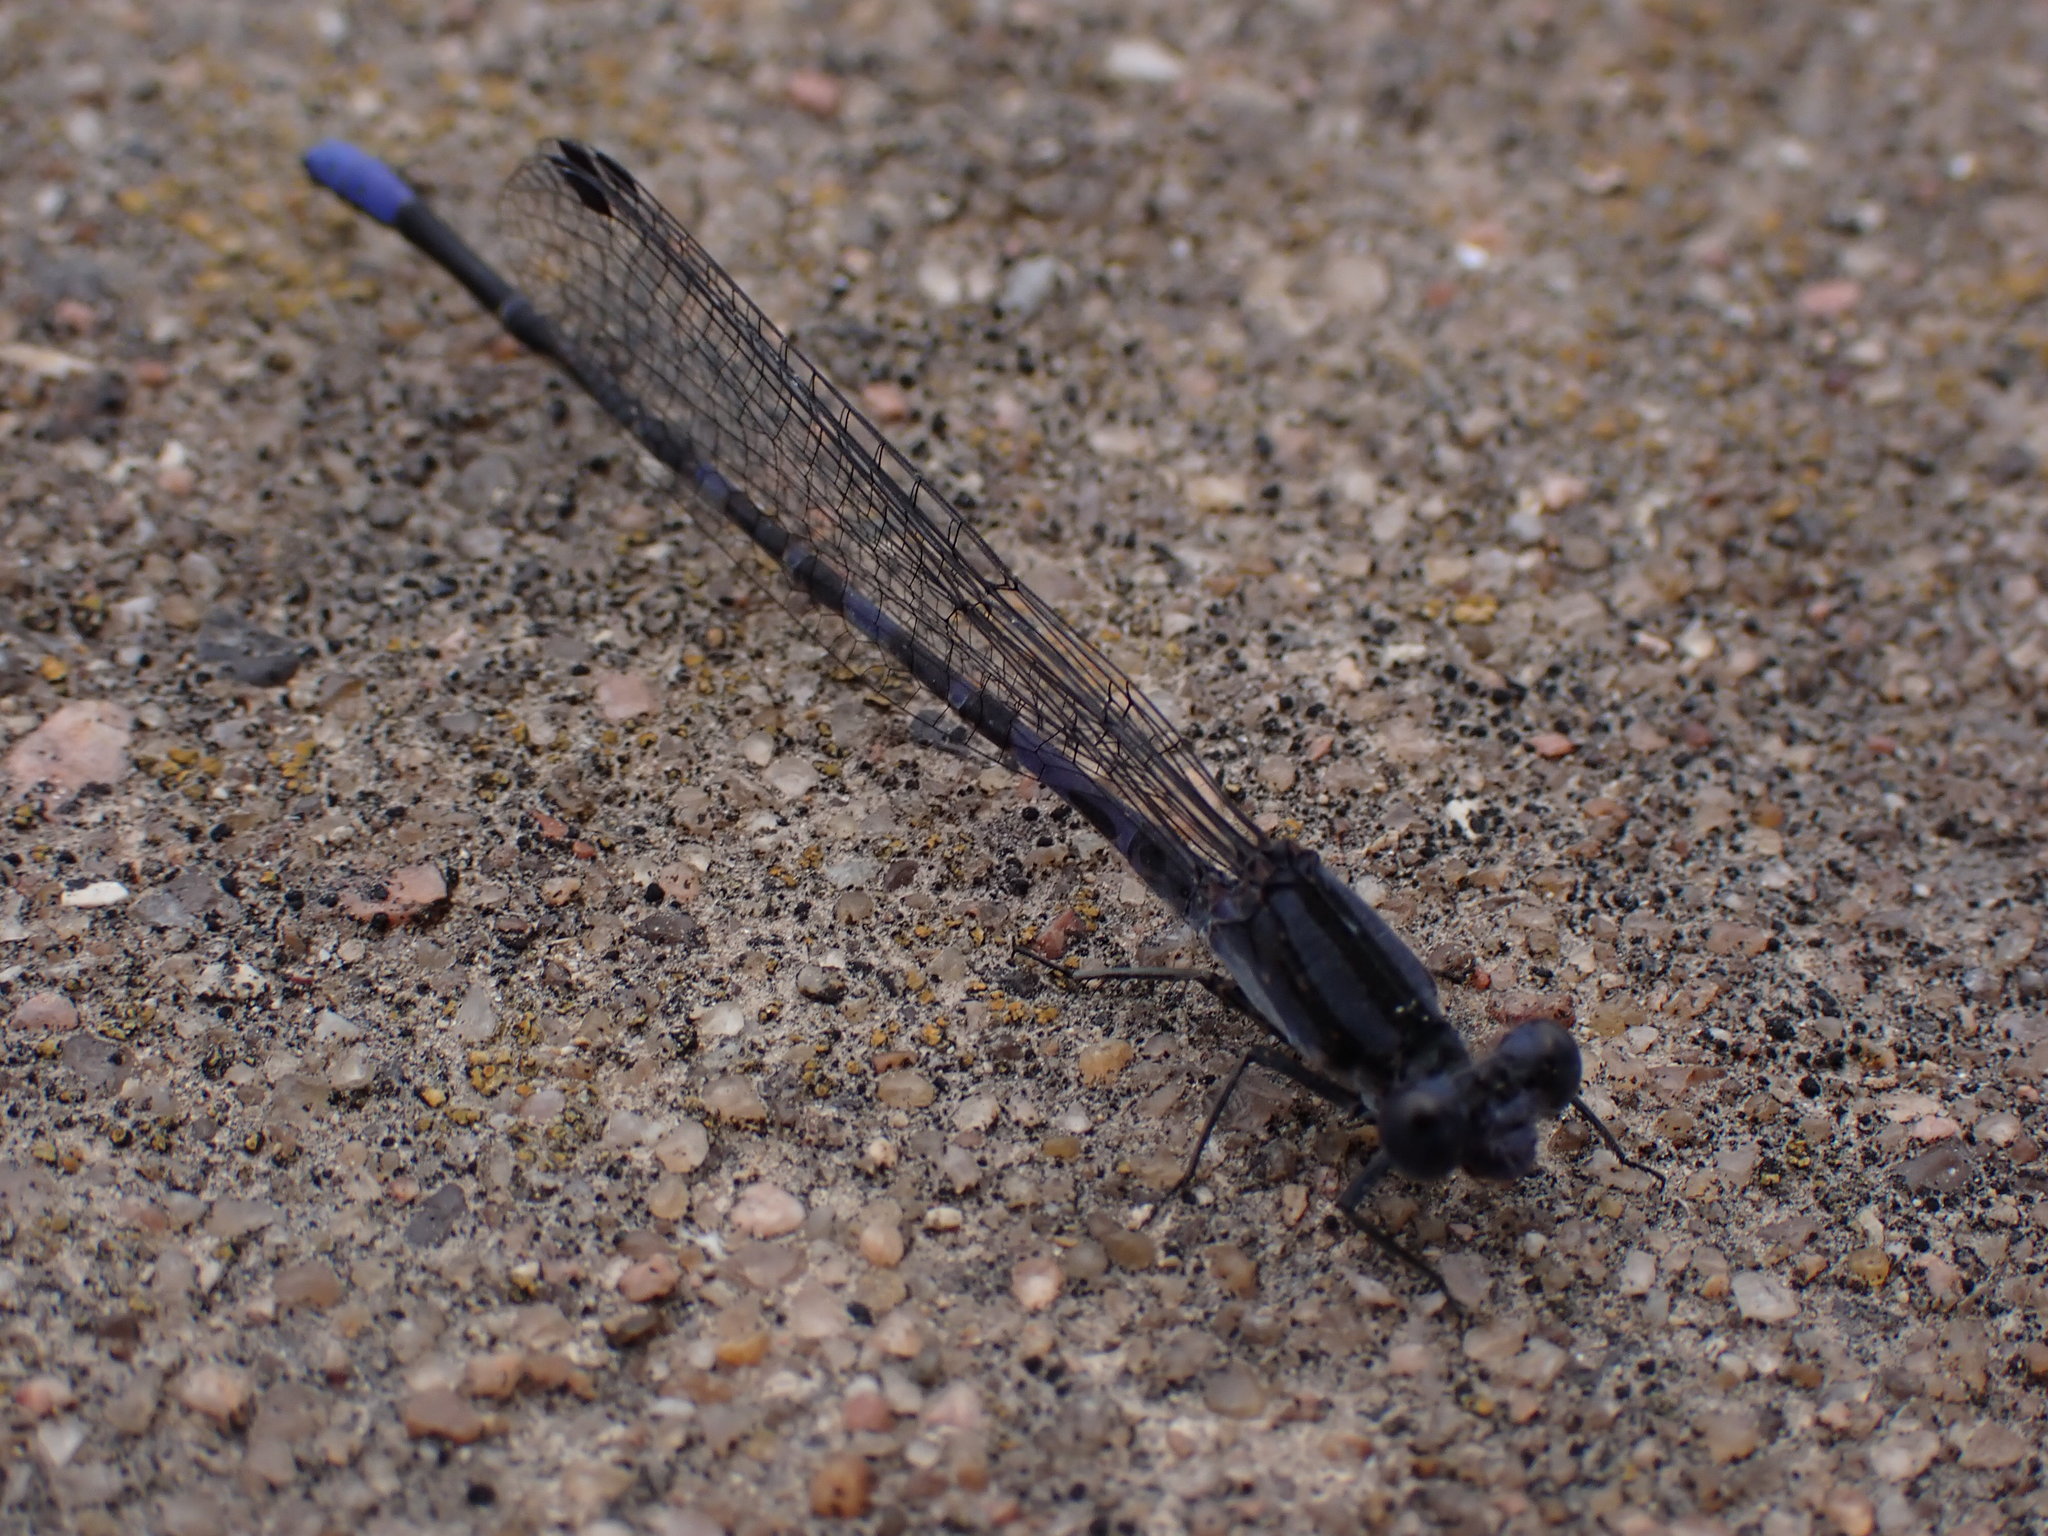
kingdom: Animalia
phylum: Arthropoda
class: Insecta
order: Odonata
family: Coenagrionidae
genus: Argia
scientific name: Argia immunda
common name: Kiowa dancer
